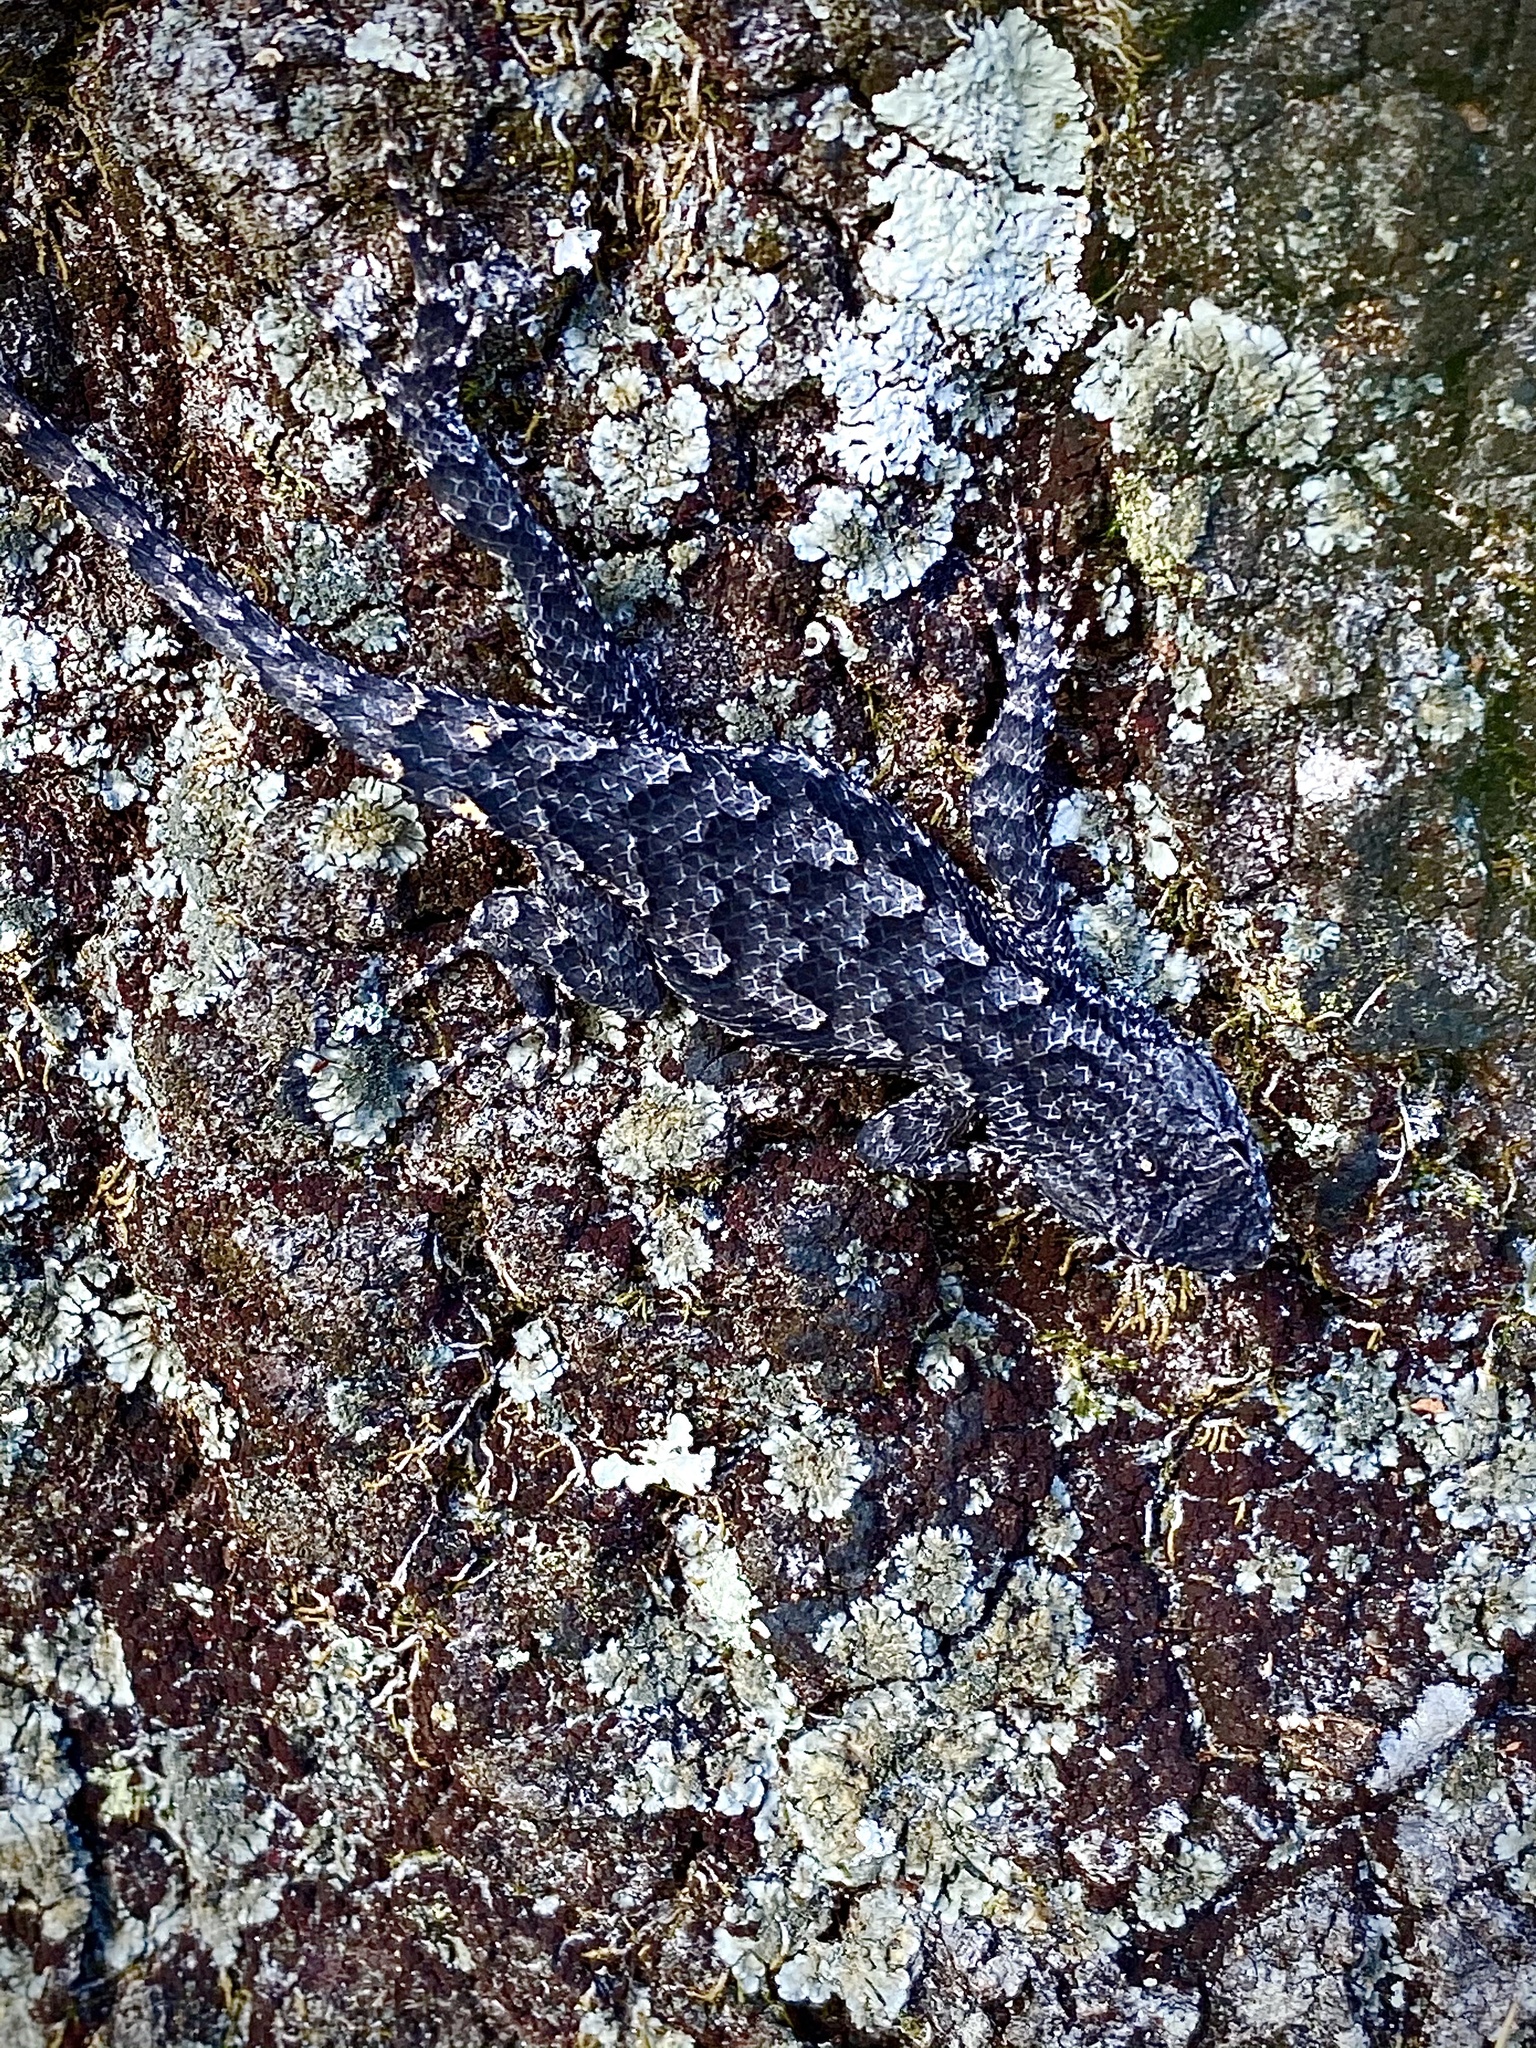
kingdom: Animalia
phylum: Chordata
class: Squamata
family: Phrynosomatidae
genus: Sceloporus
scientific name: Sceloporus undulatus
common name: Eastern fence lizard
